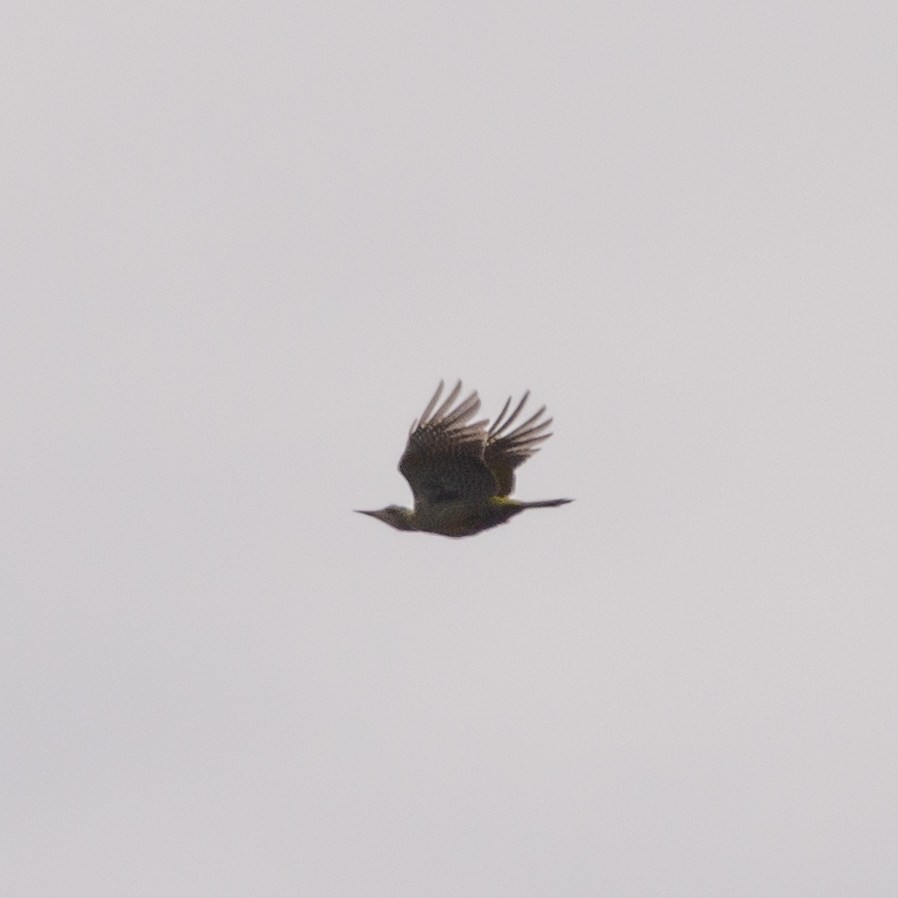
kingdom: Animalia
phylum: Chordata
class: Aves
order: Piciformes
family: Picidae
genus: Picus
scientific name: Picus sharpei
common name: Iberian green woodpecker
